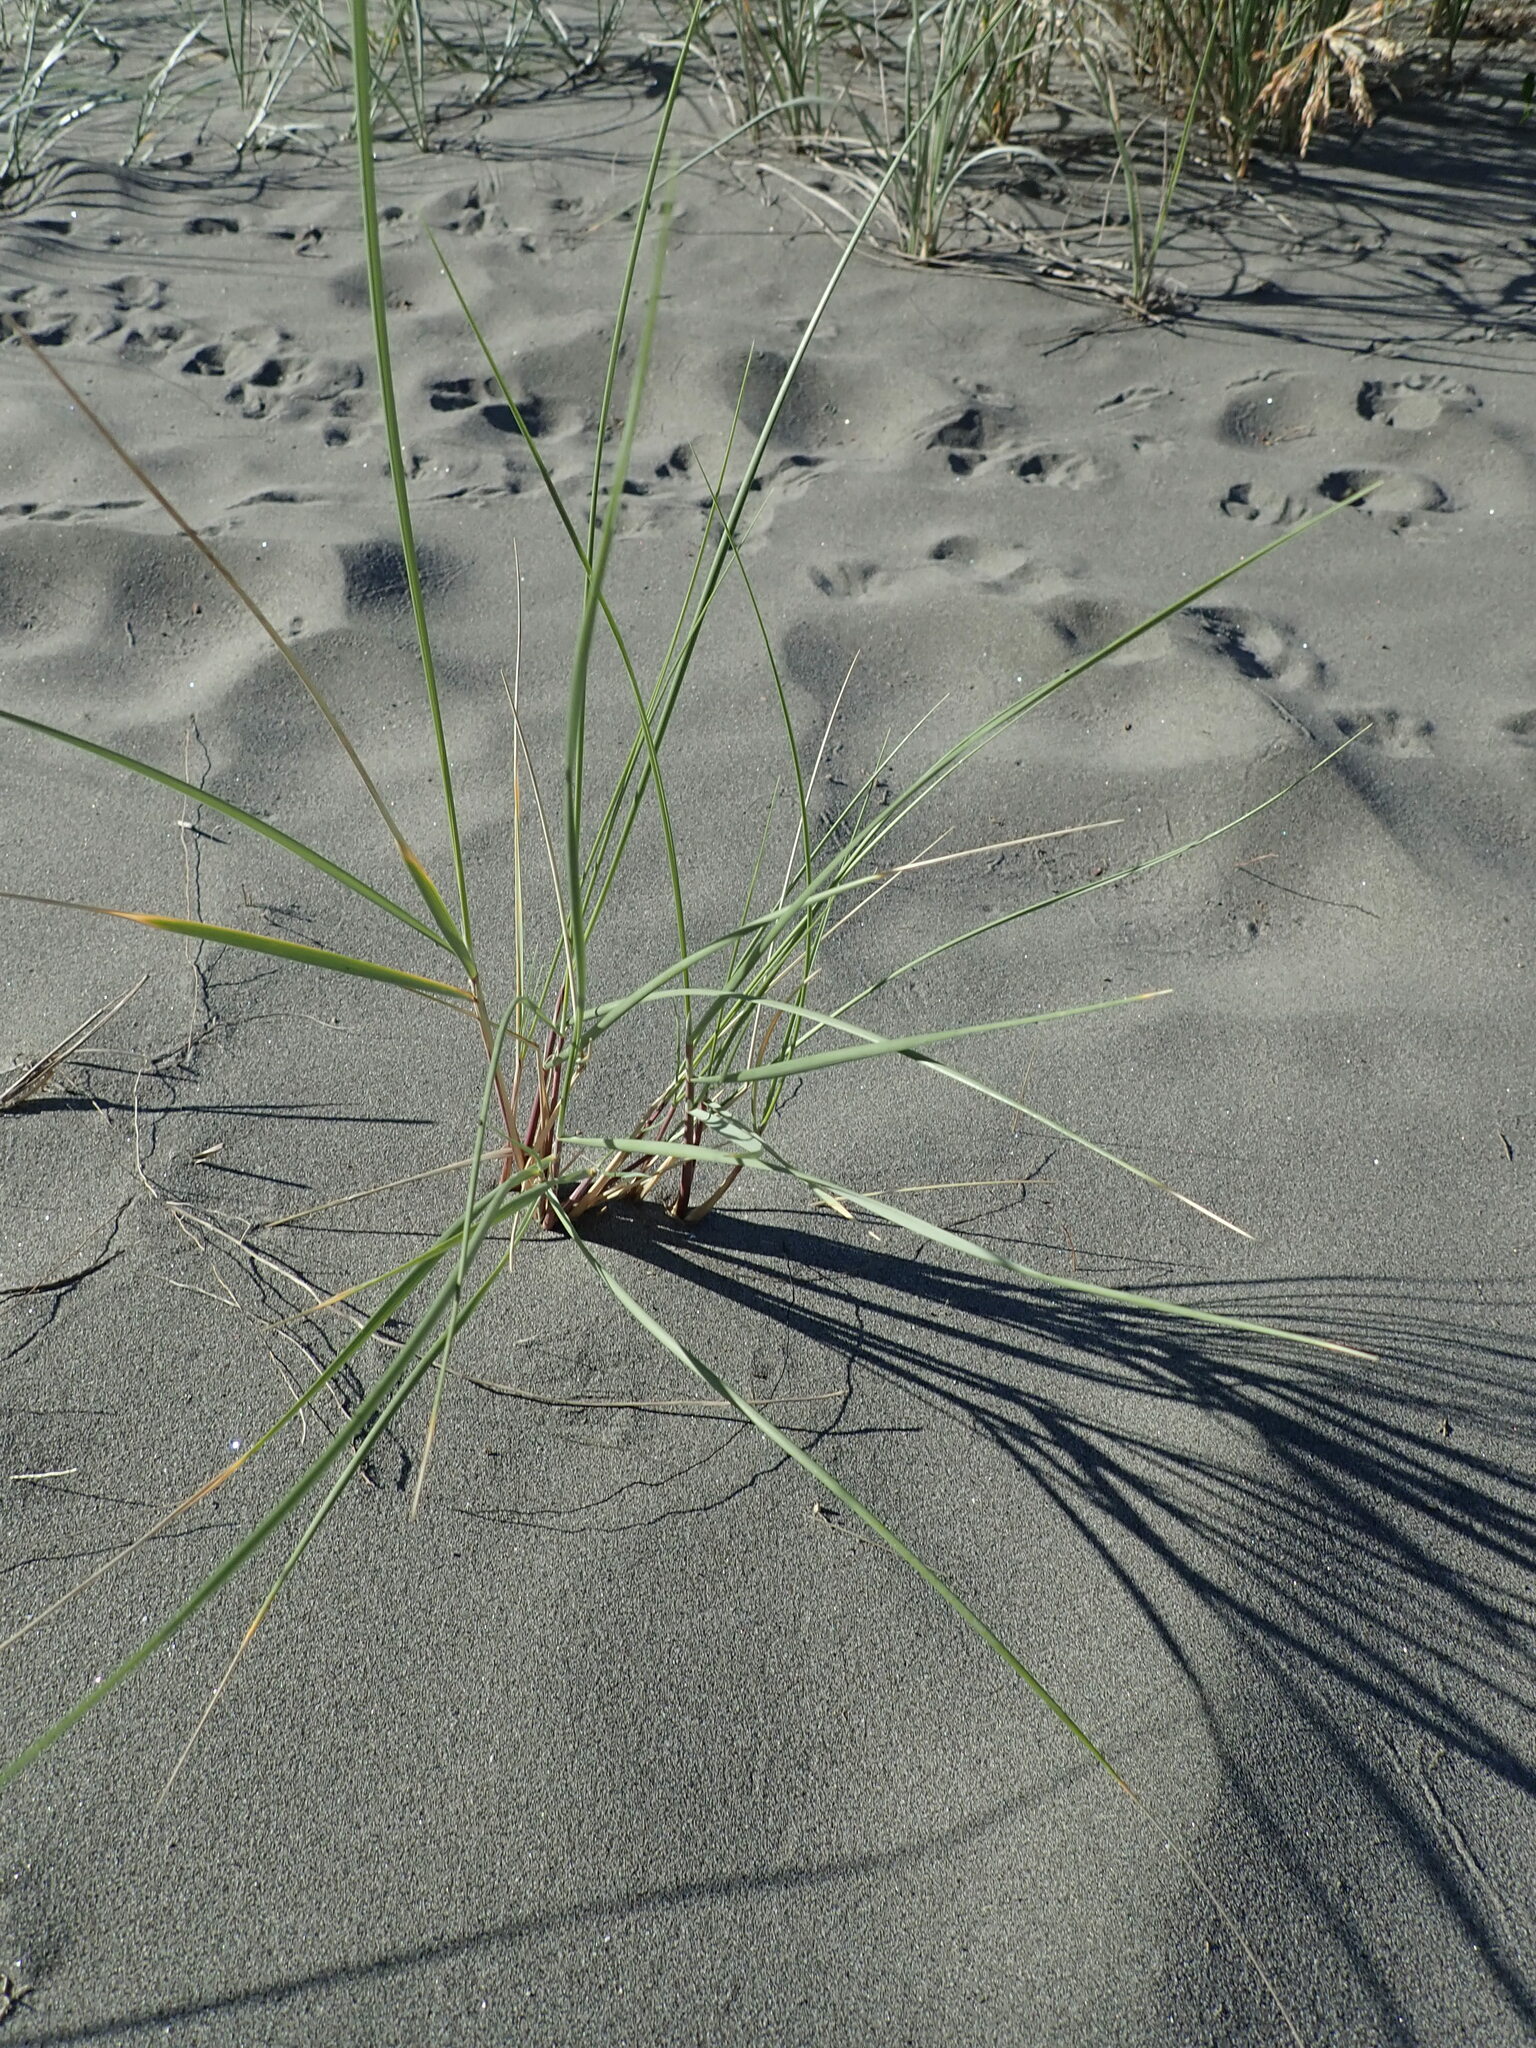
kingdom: Plantae
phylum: Tracheophyta
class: Liliopsida
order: Poales
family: Poaceae
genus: Calamagrostis
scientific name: Calamagrostis arenaria
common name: European beachgrass
